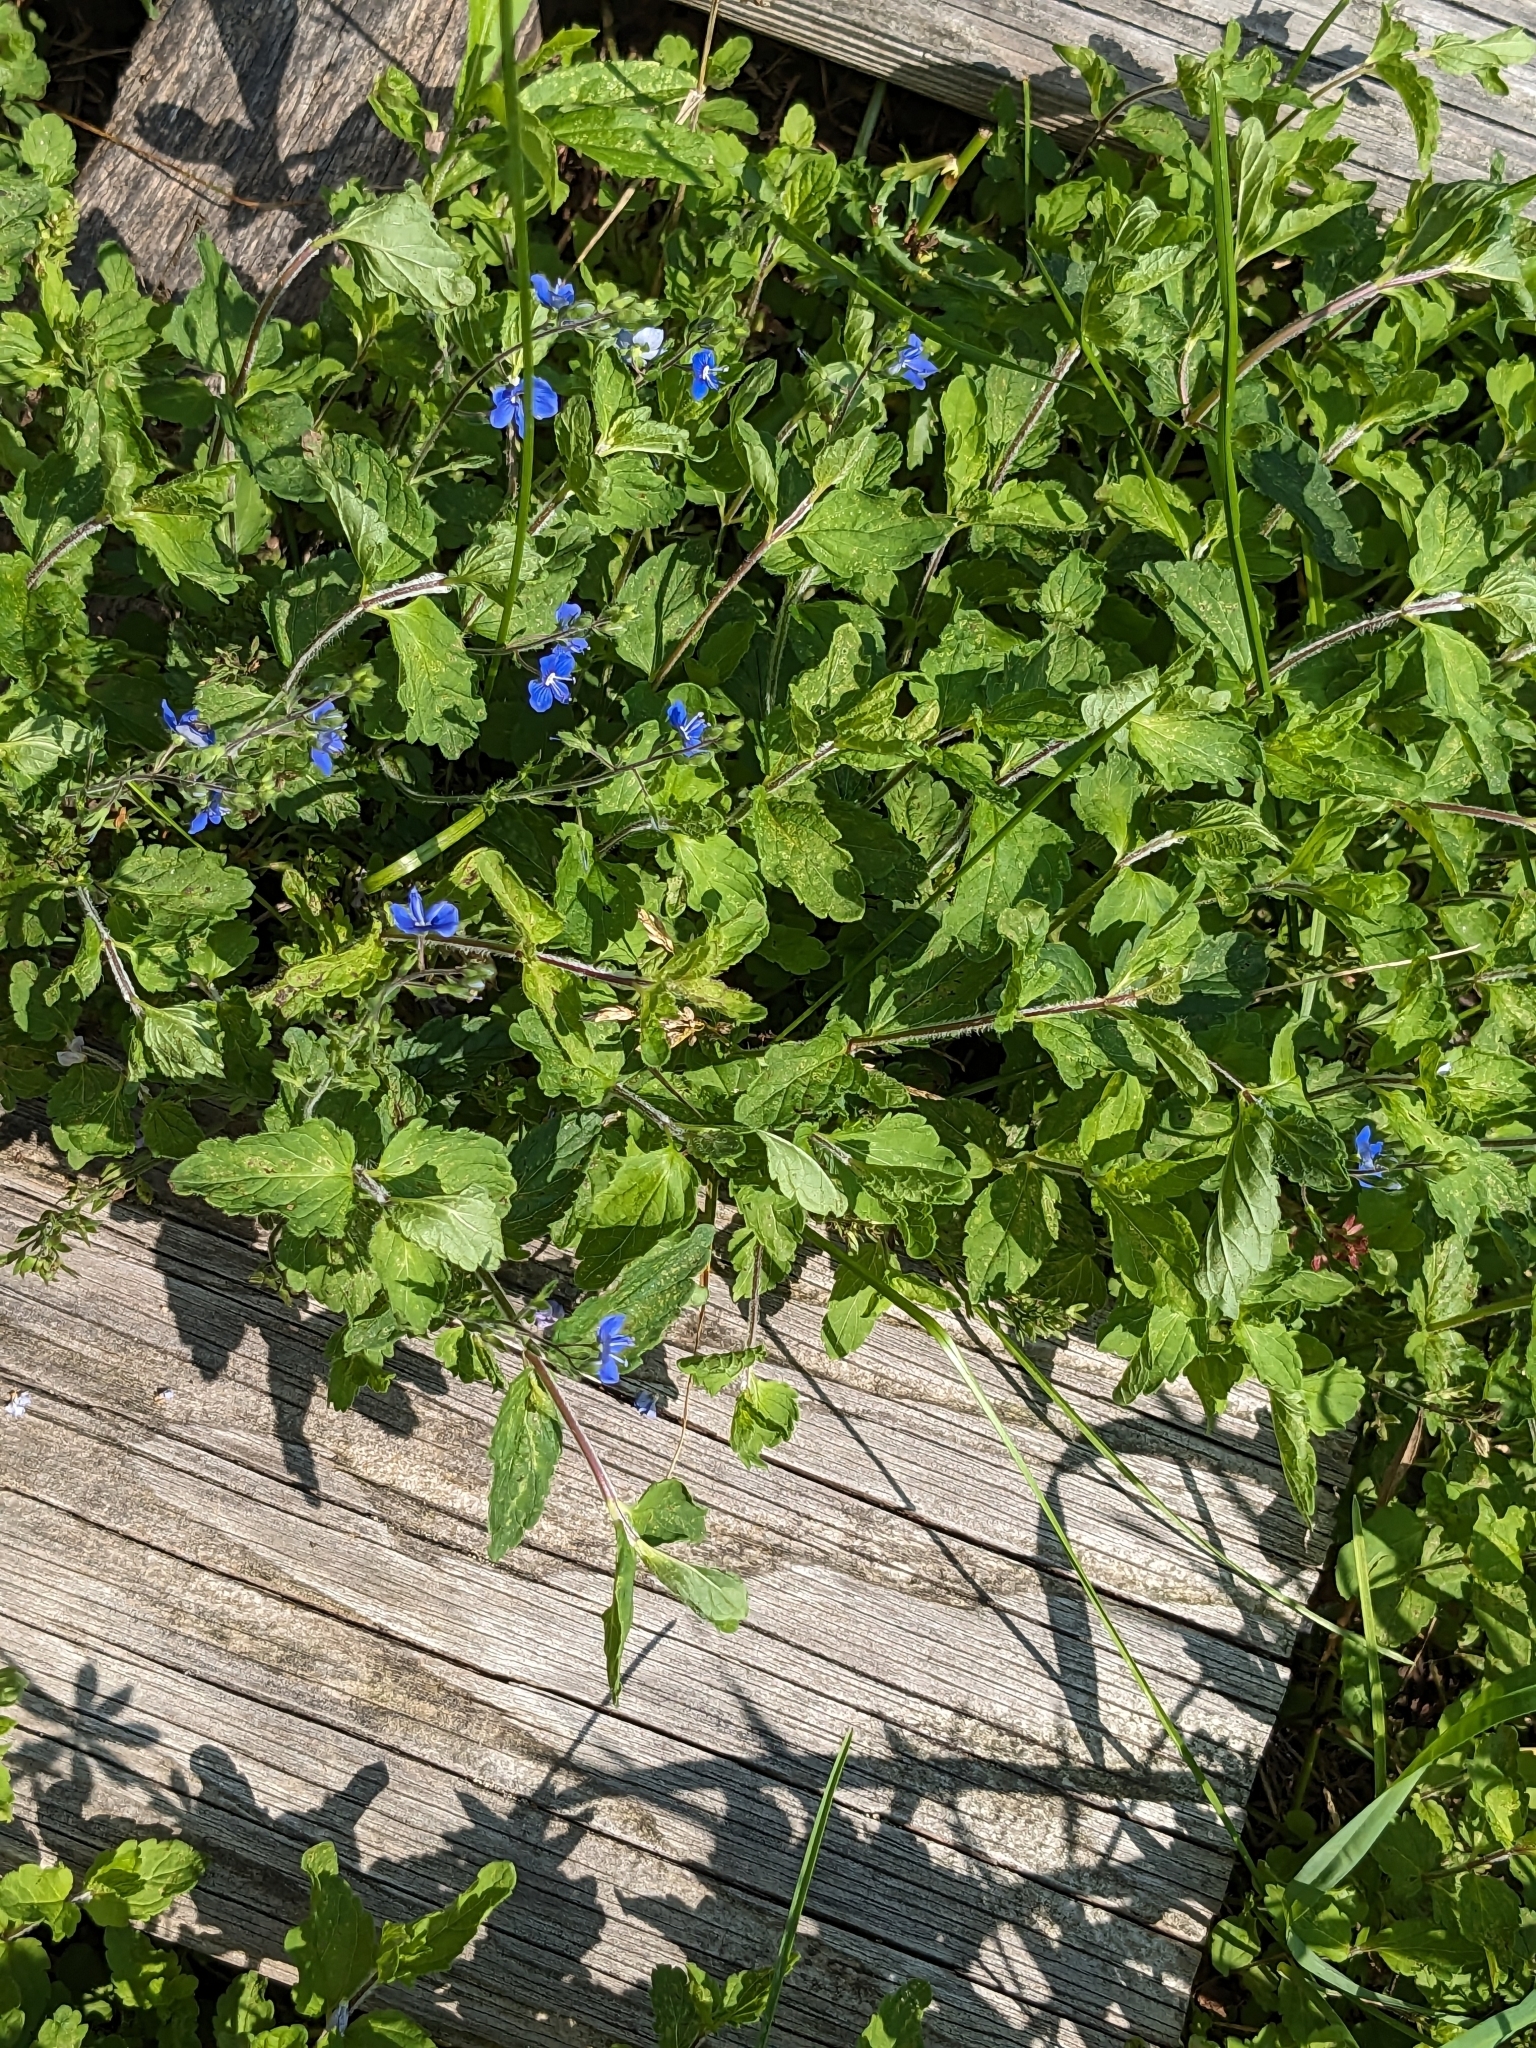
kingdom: Plantae
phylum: Tracheophyta
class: Magnoliopsida
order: Lamiales
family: Plantaginaceae
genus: Veronica
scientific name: Veronica chamaedrys
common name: Germander speedwell
